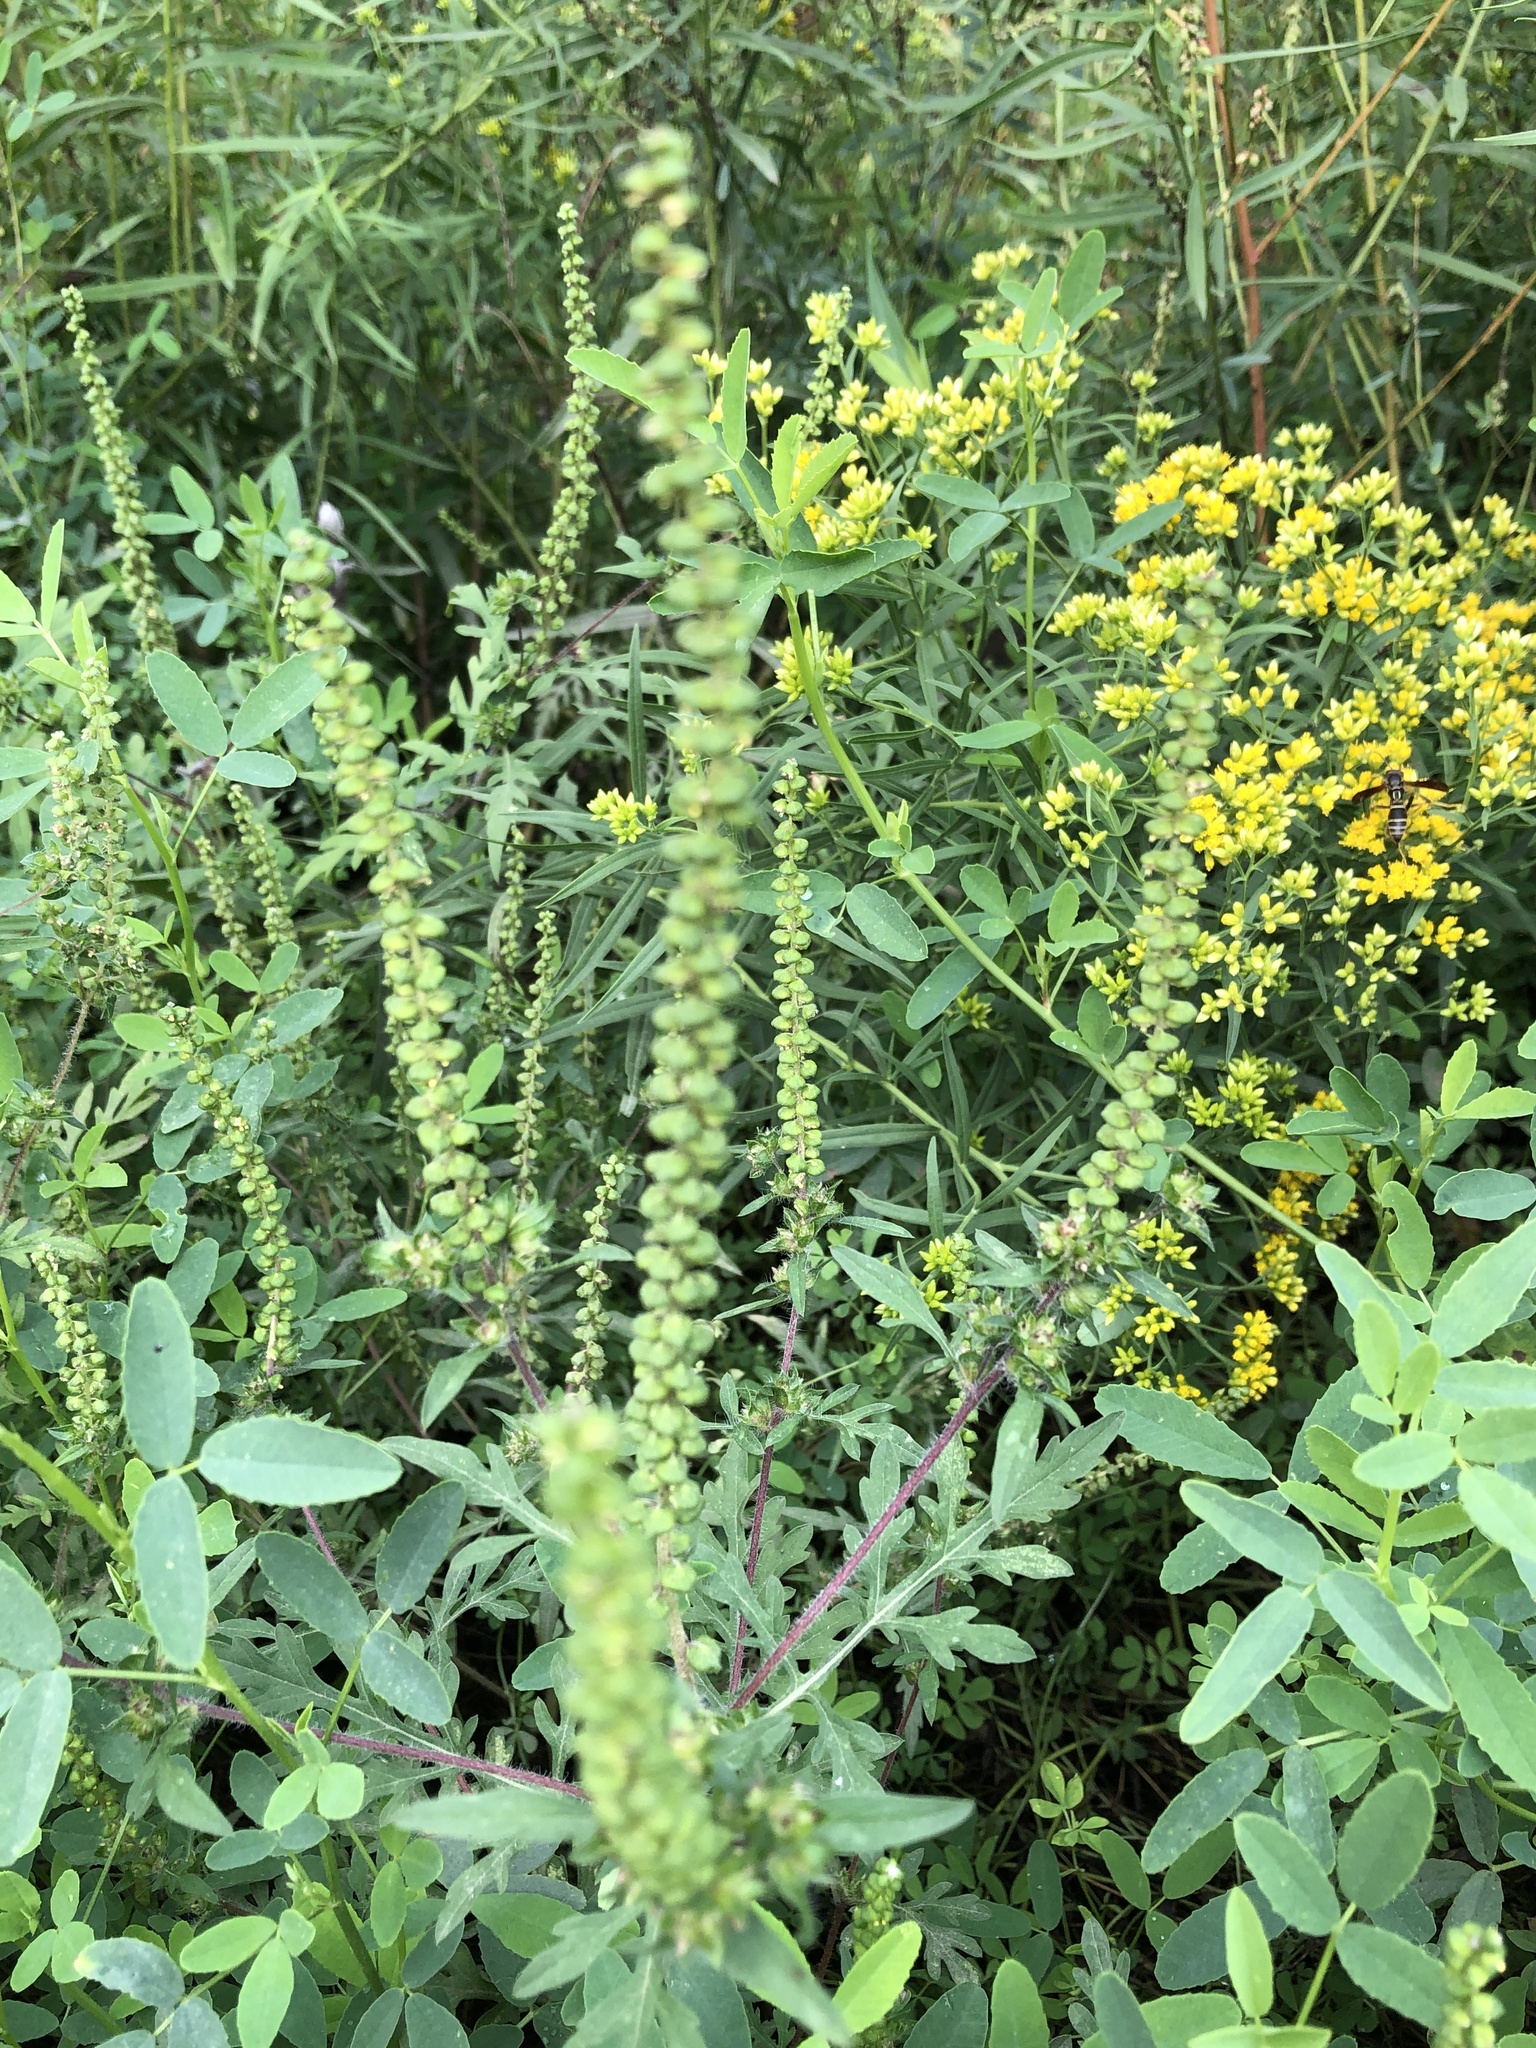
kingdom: Plantae
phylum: Tracheophyta
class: Magnoliopsida
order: Asterales
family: Asteraceae
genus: Ambrosia
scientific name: Ambrosia artemisiifolia
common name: Annual ragweed
